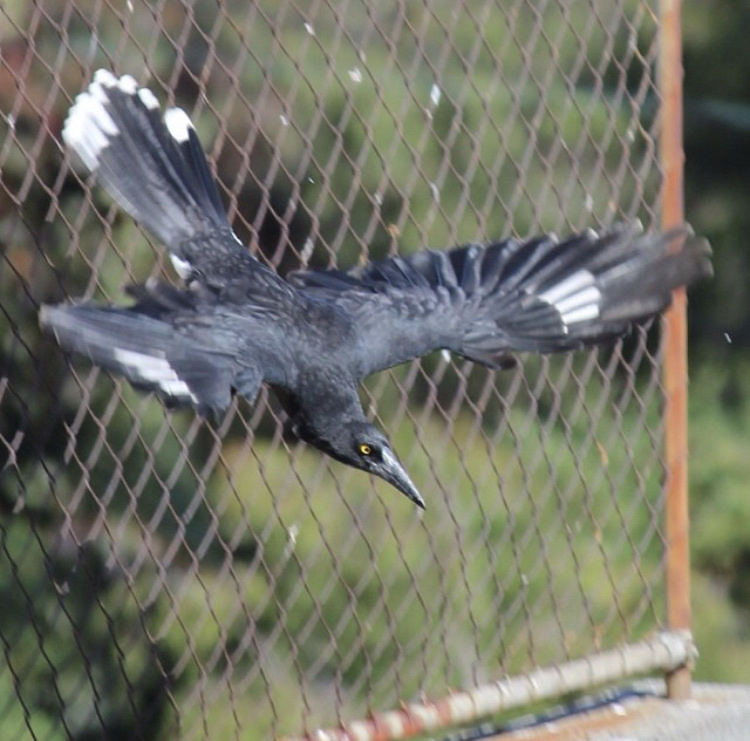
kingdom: Animalia
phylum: Chordata
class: Aves
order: Passeriformes
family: Cracticidae
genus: Strepera
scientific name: Strepera versicolor
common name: Grey currawong
